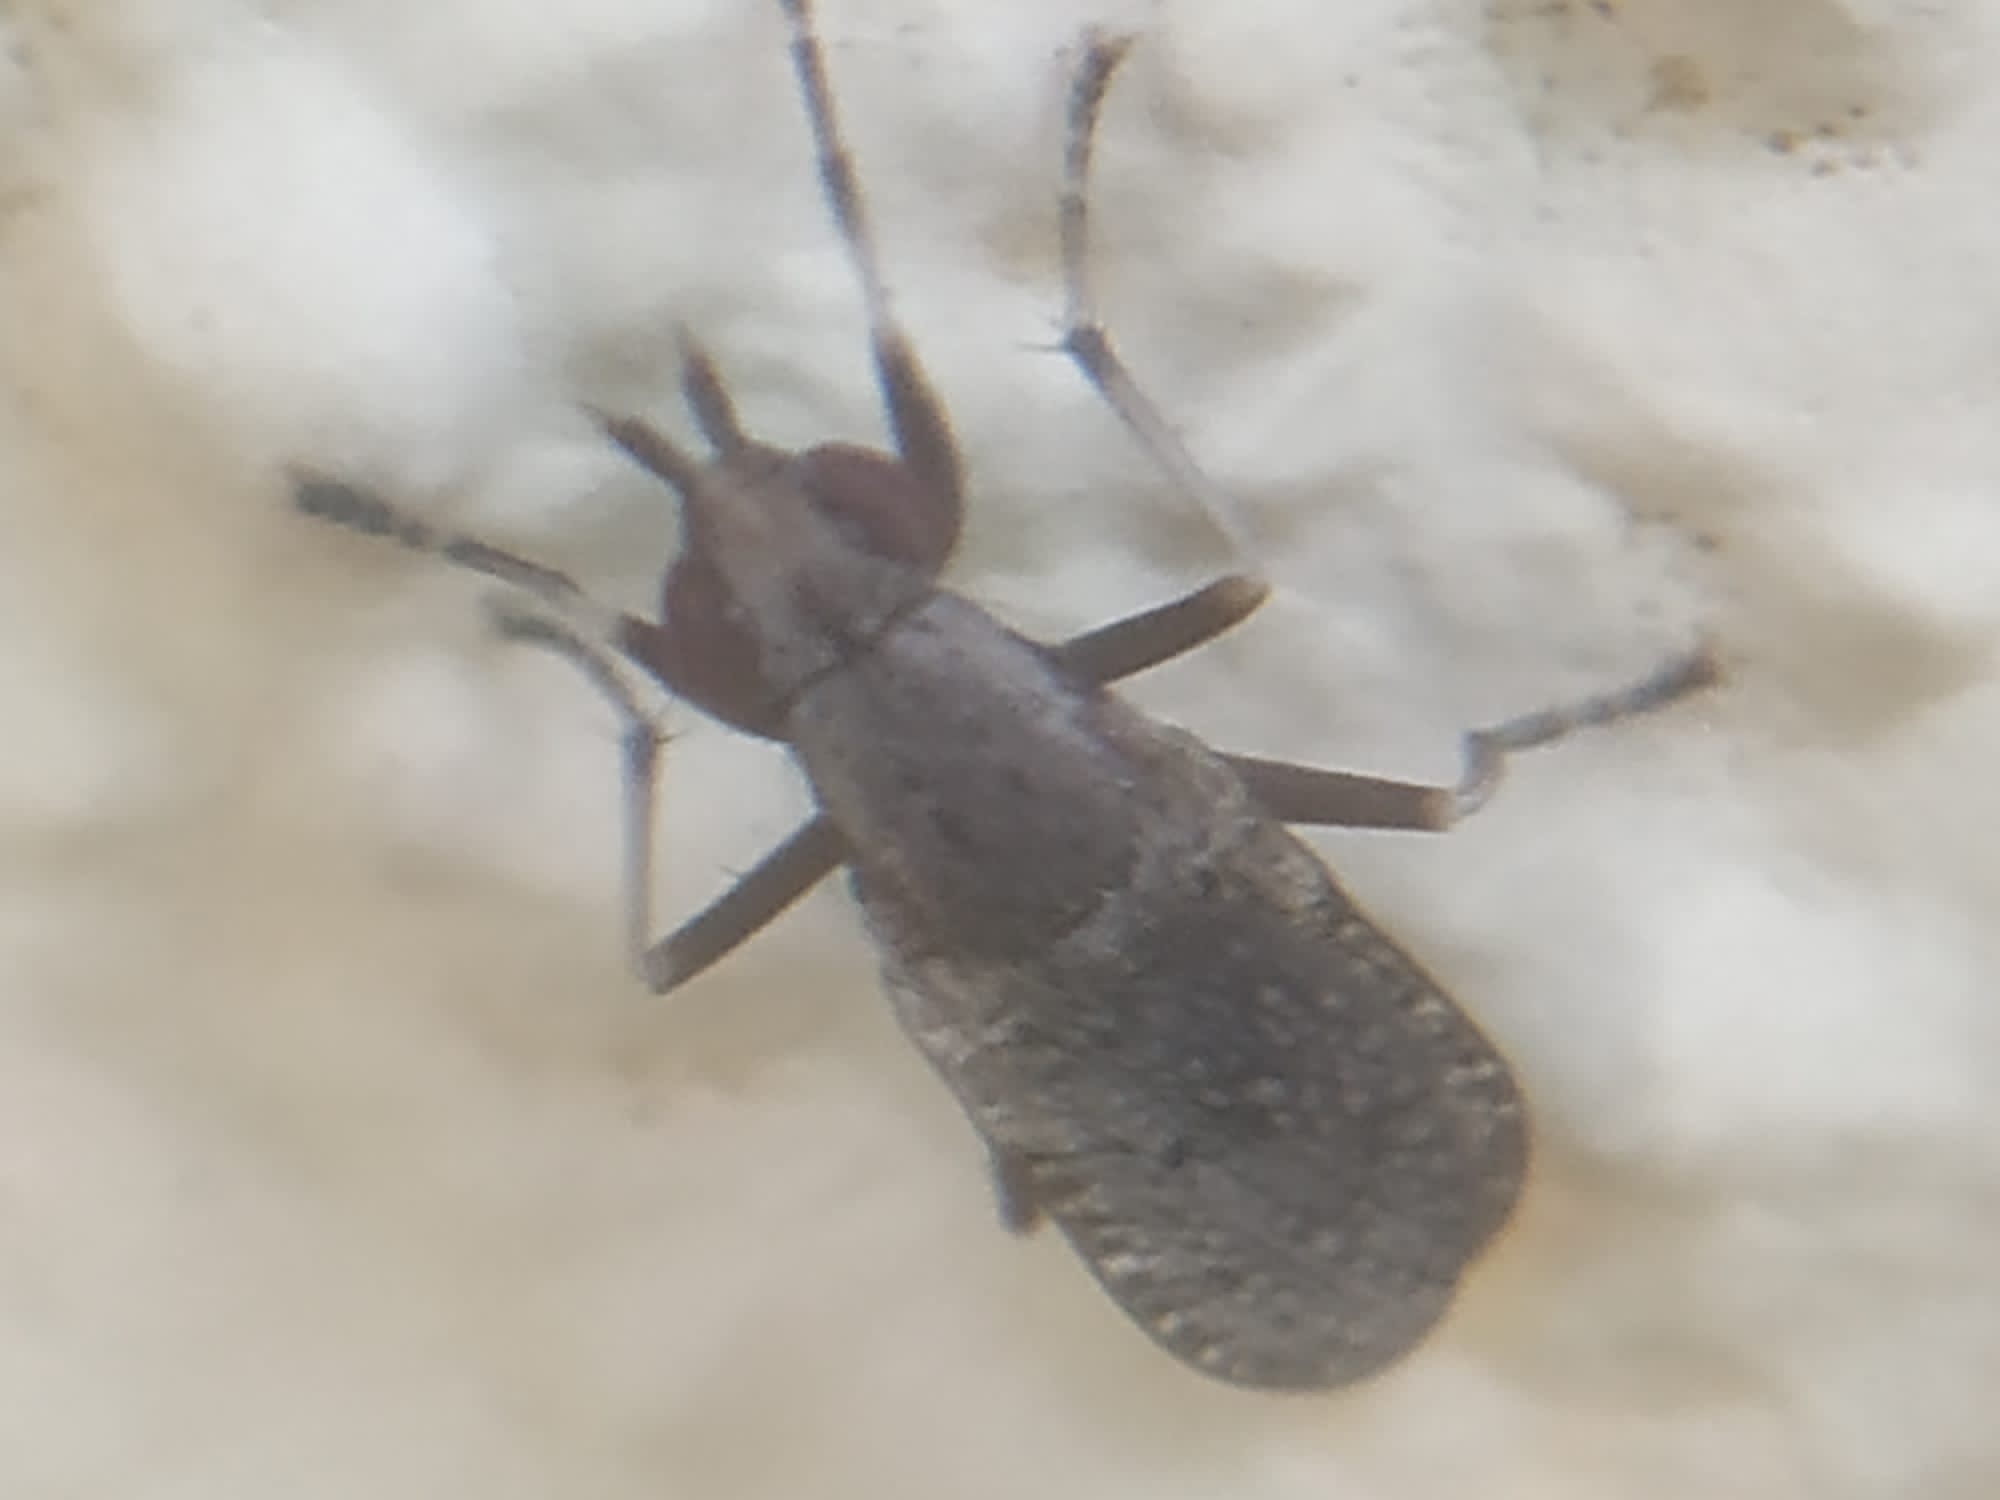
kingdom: Animalia
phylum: Arthropoda
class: Insecta
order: Diptera
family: Sciomyzidae
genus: Euthycera
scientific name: Euthycera cribrata
